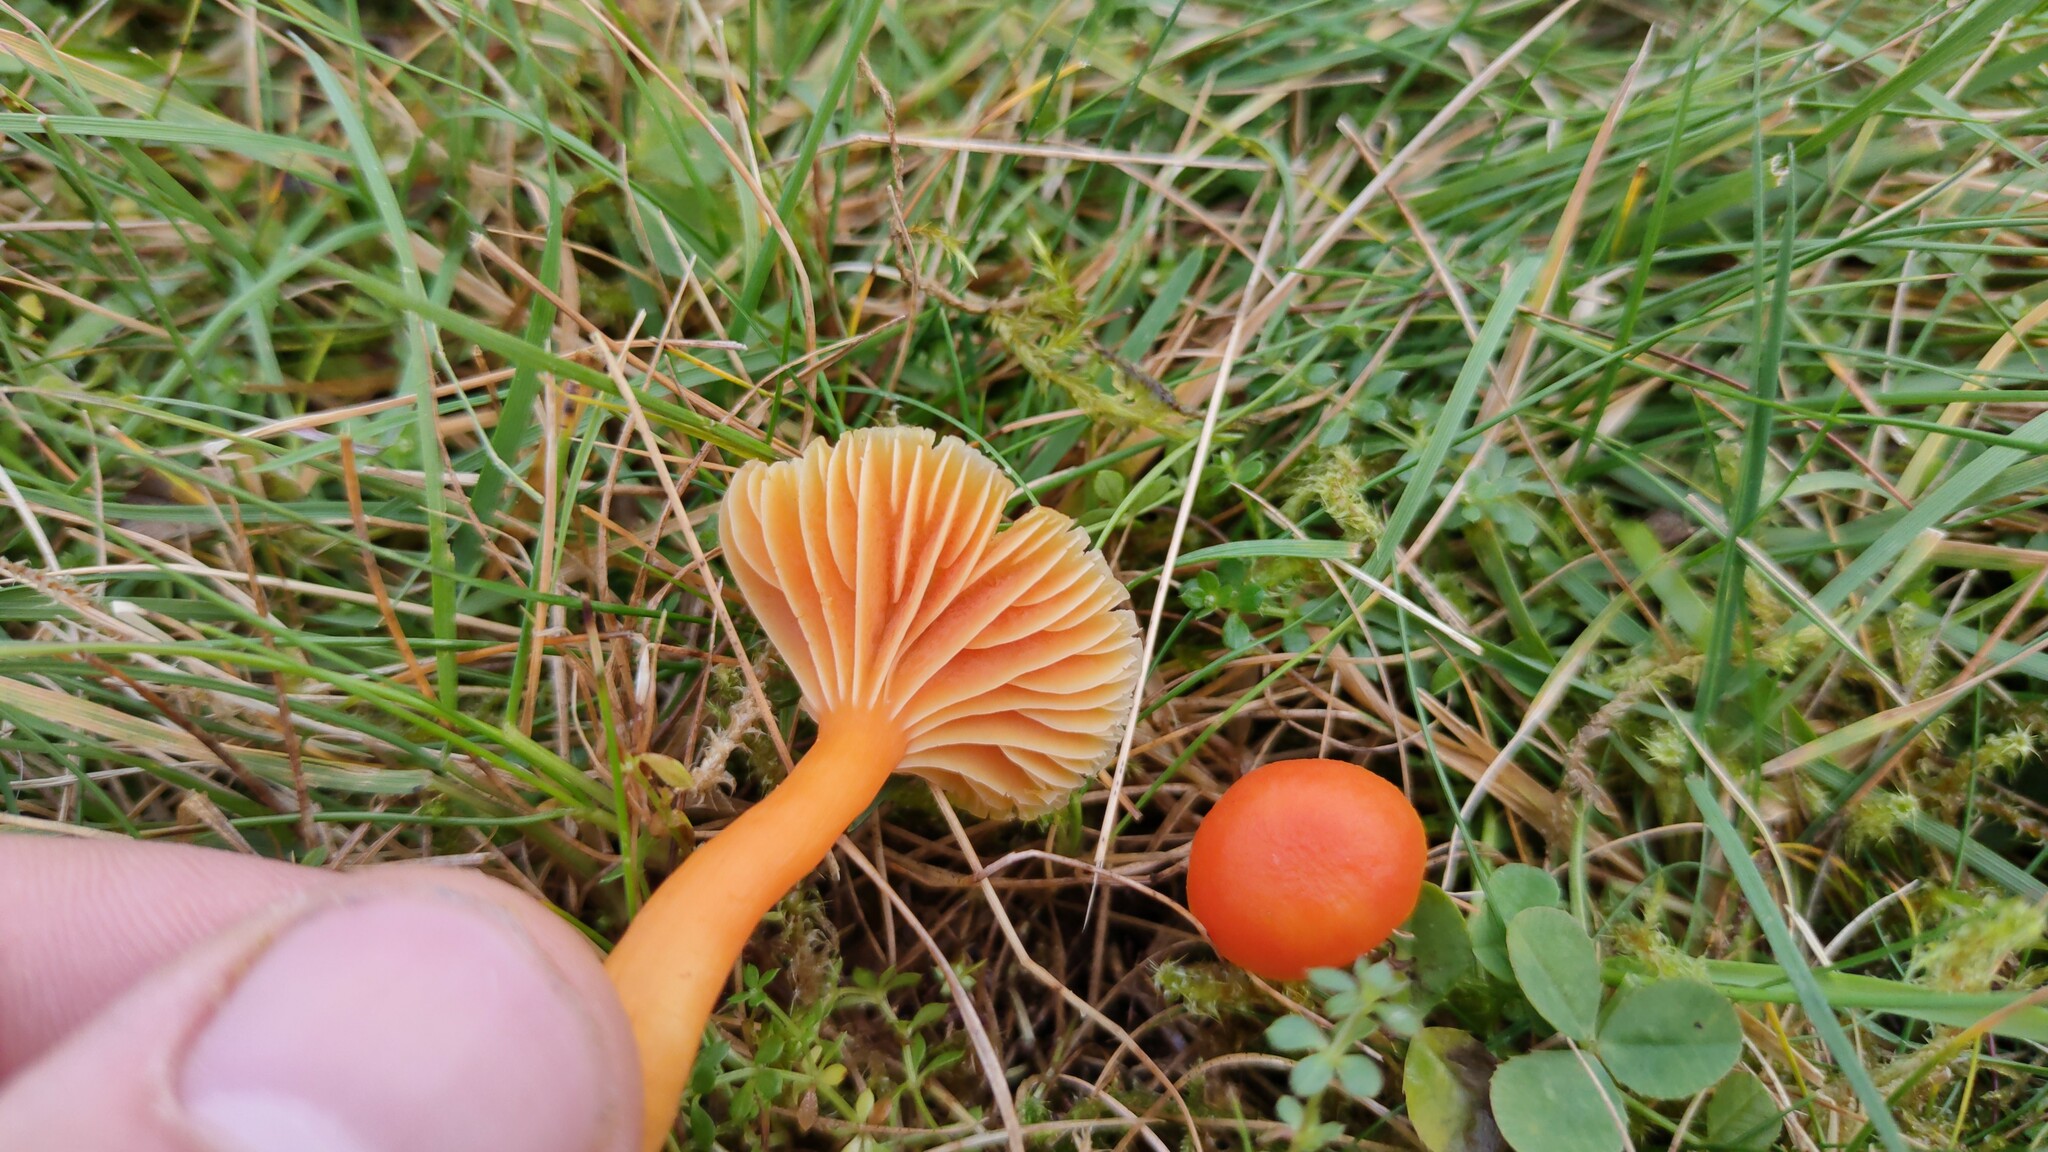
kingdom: Fungi
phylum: Basidiomycota
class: Agaricomycetes
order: Agaricales
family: Hygrophoraceae
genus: Hygrocybe
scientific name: Hygrocybe reidii
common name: Honey waxcap
